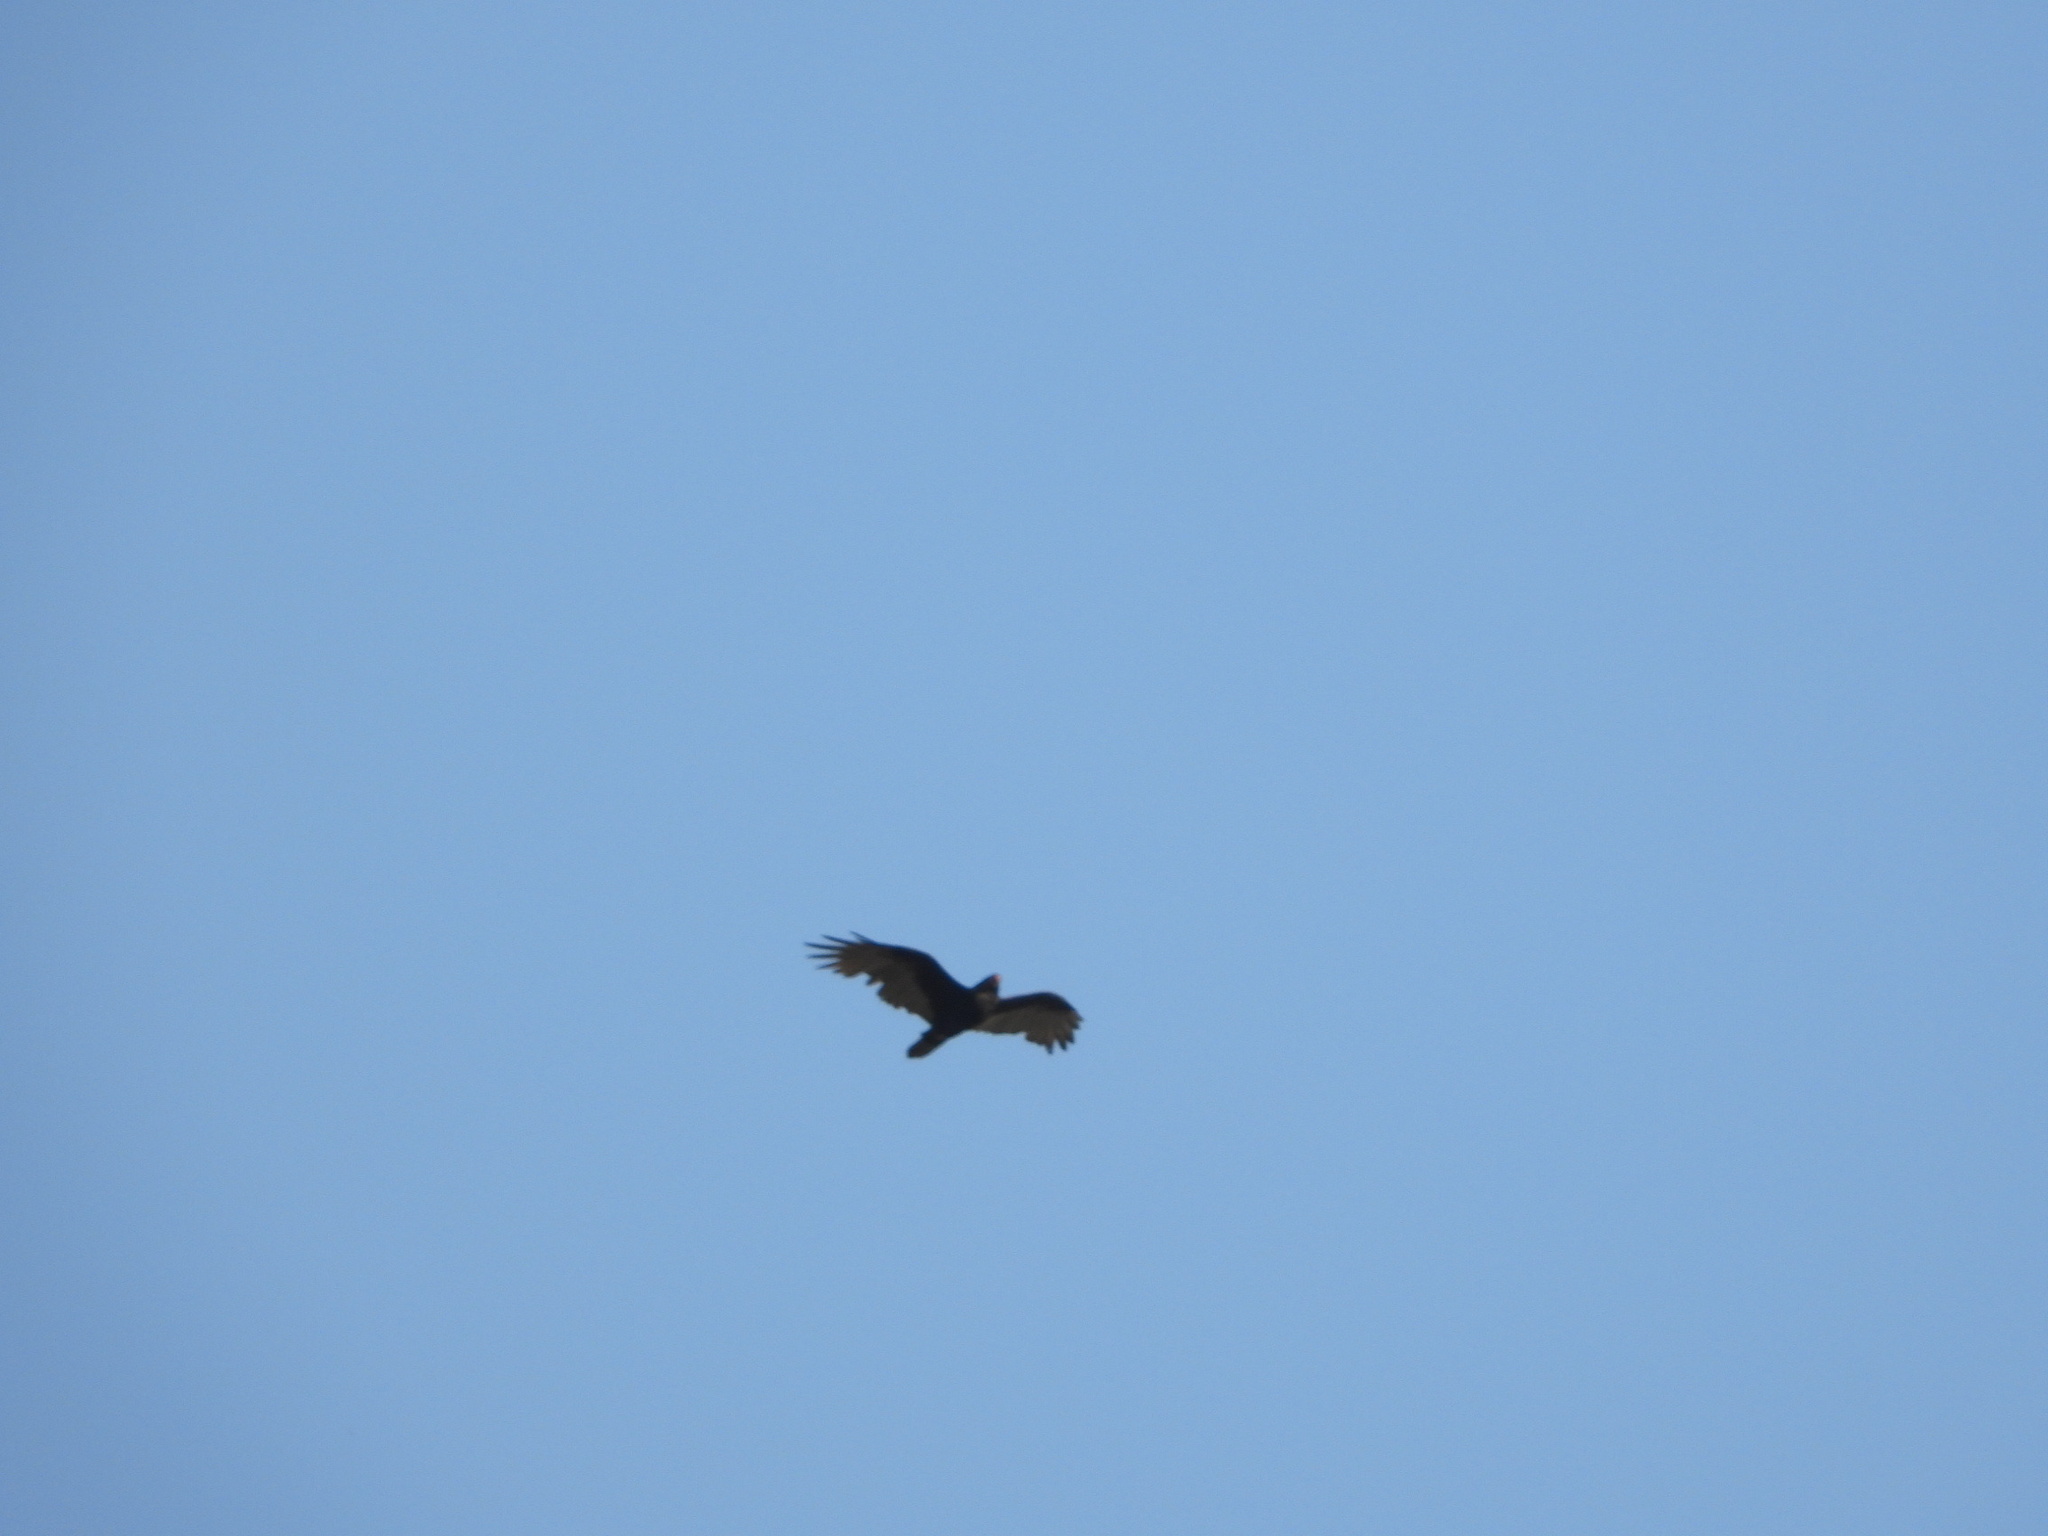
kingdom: Animalia
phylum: Chordata
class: Aves
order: Accipitriformes
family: Cathartidae
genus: Cathartes
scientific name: Cathartes aura
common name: Turkey vulture
